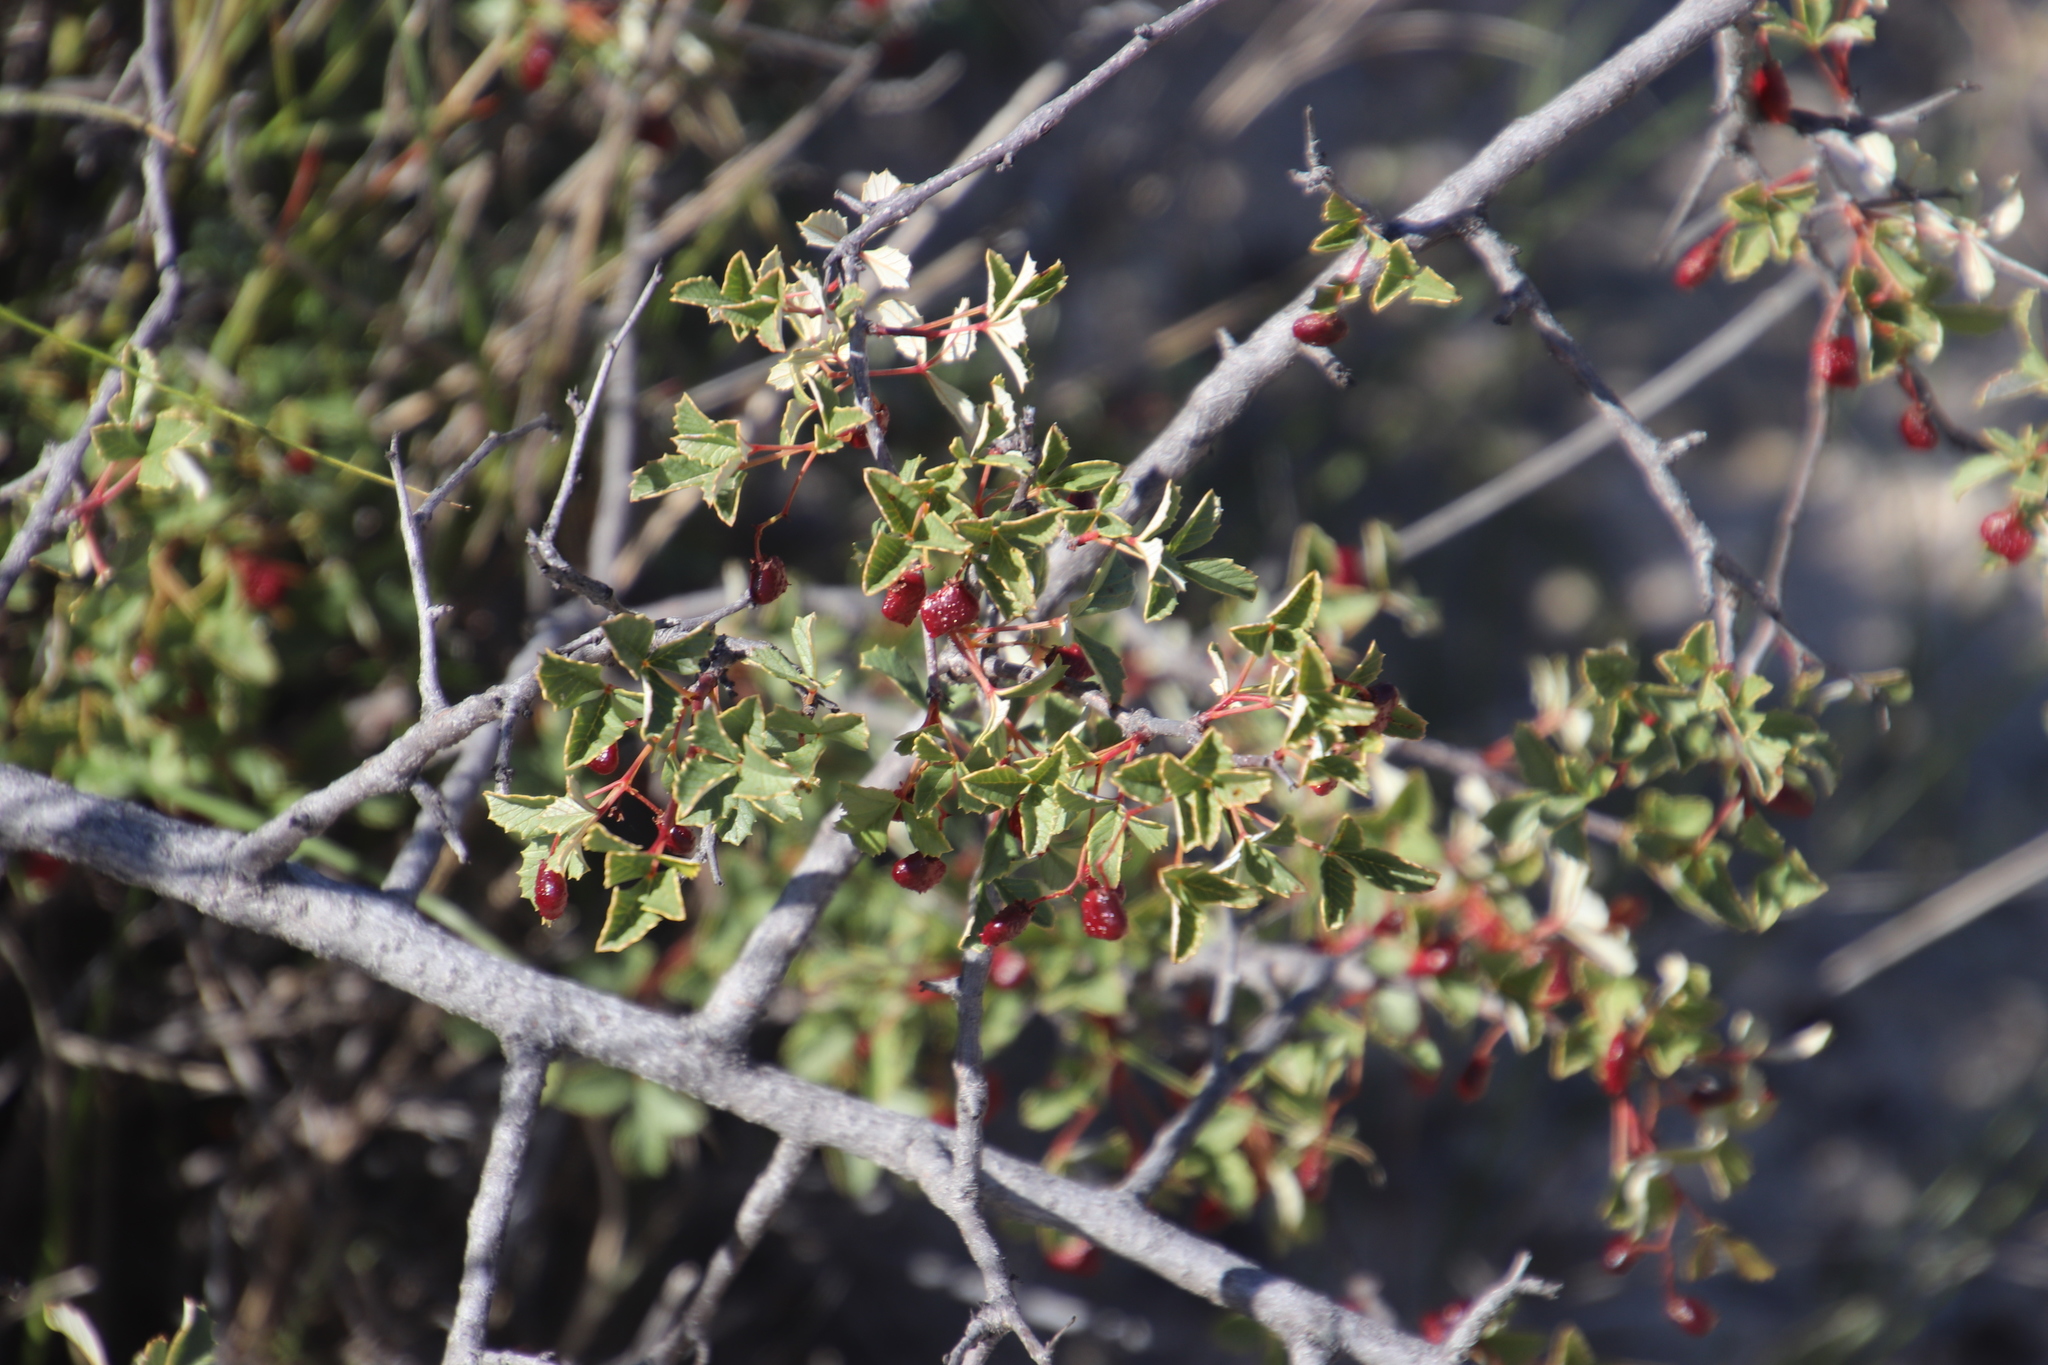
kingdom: Plantae
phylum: Tracheophyta
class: Magnoliopsida
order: Sapindales
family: Anacardiaceae
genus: Searsia
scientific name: Searsia dissecta
